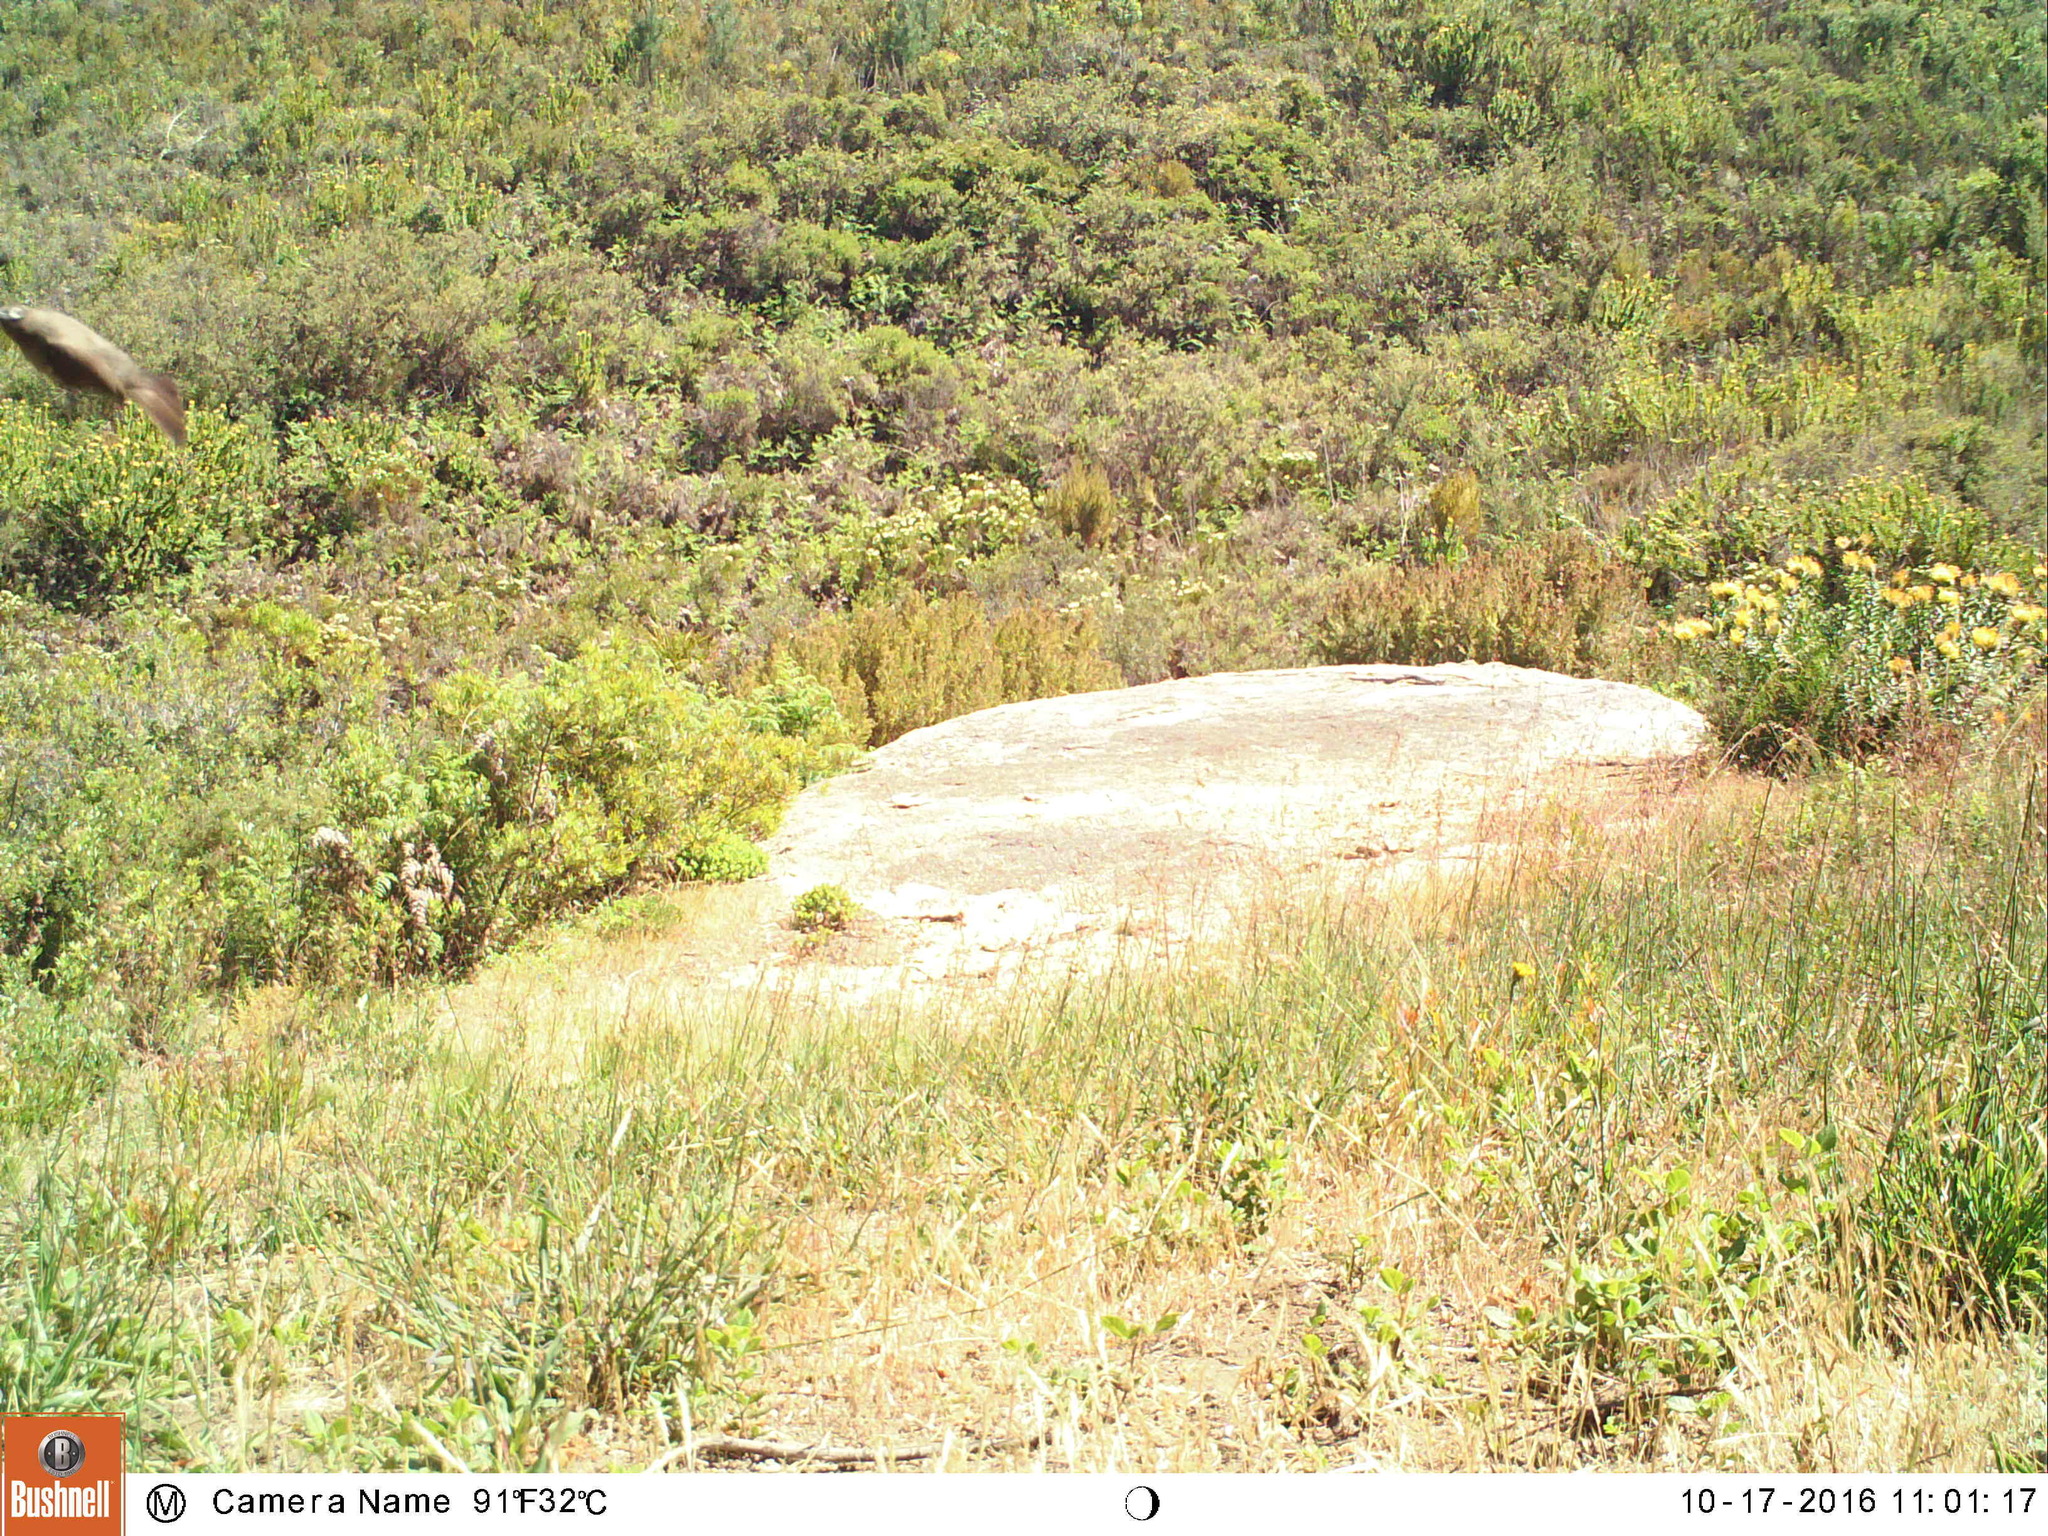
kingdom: Animalia
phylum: Chordata
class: Aves
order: Passeriformes
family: Pycnonotidae
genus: Pycnonotus
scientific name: Pycnonotus capensis
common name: Cape bulbul
